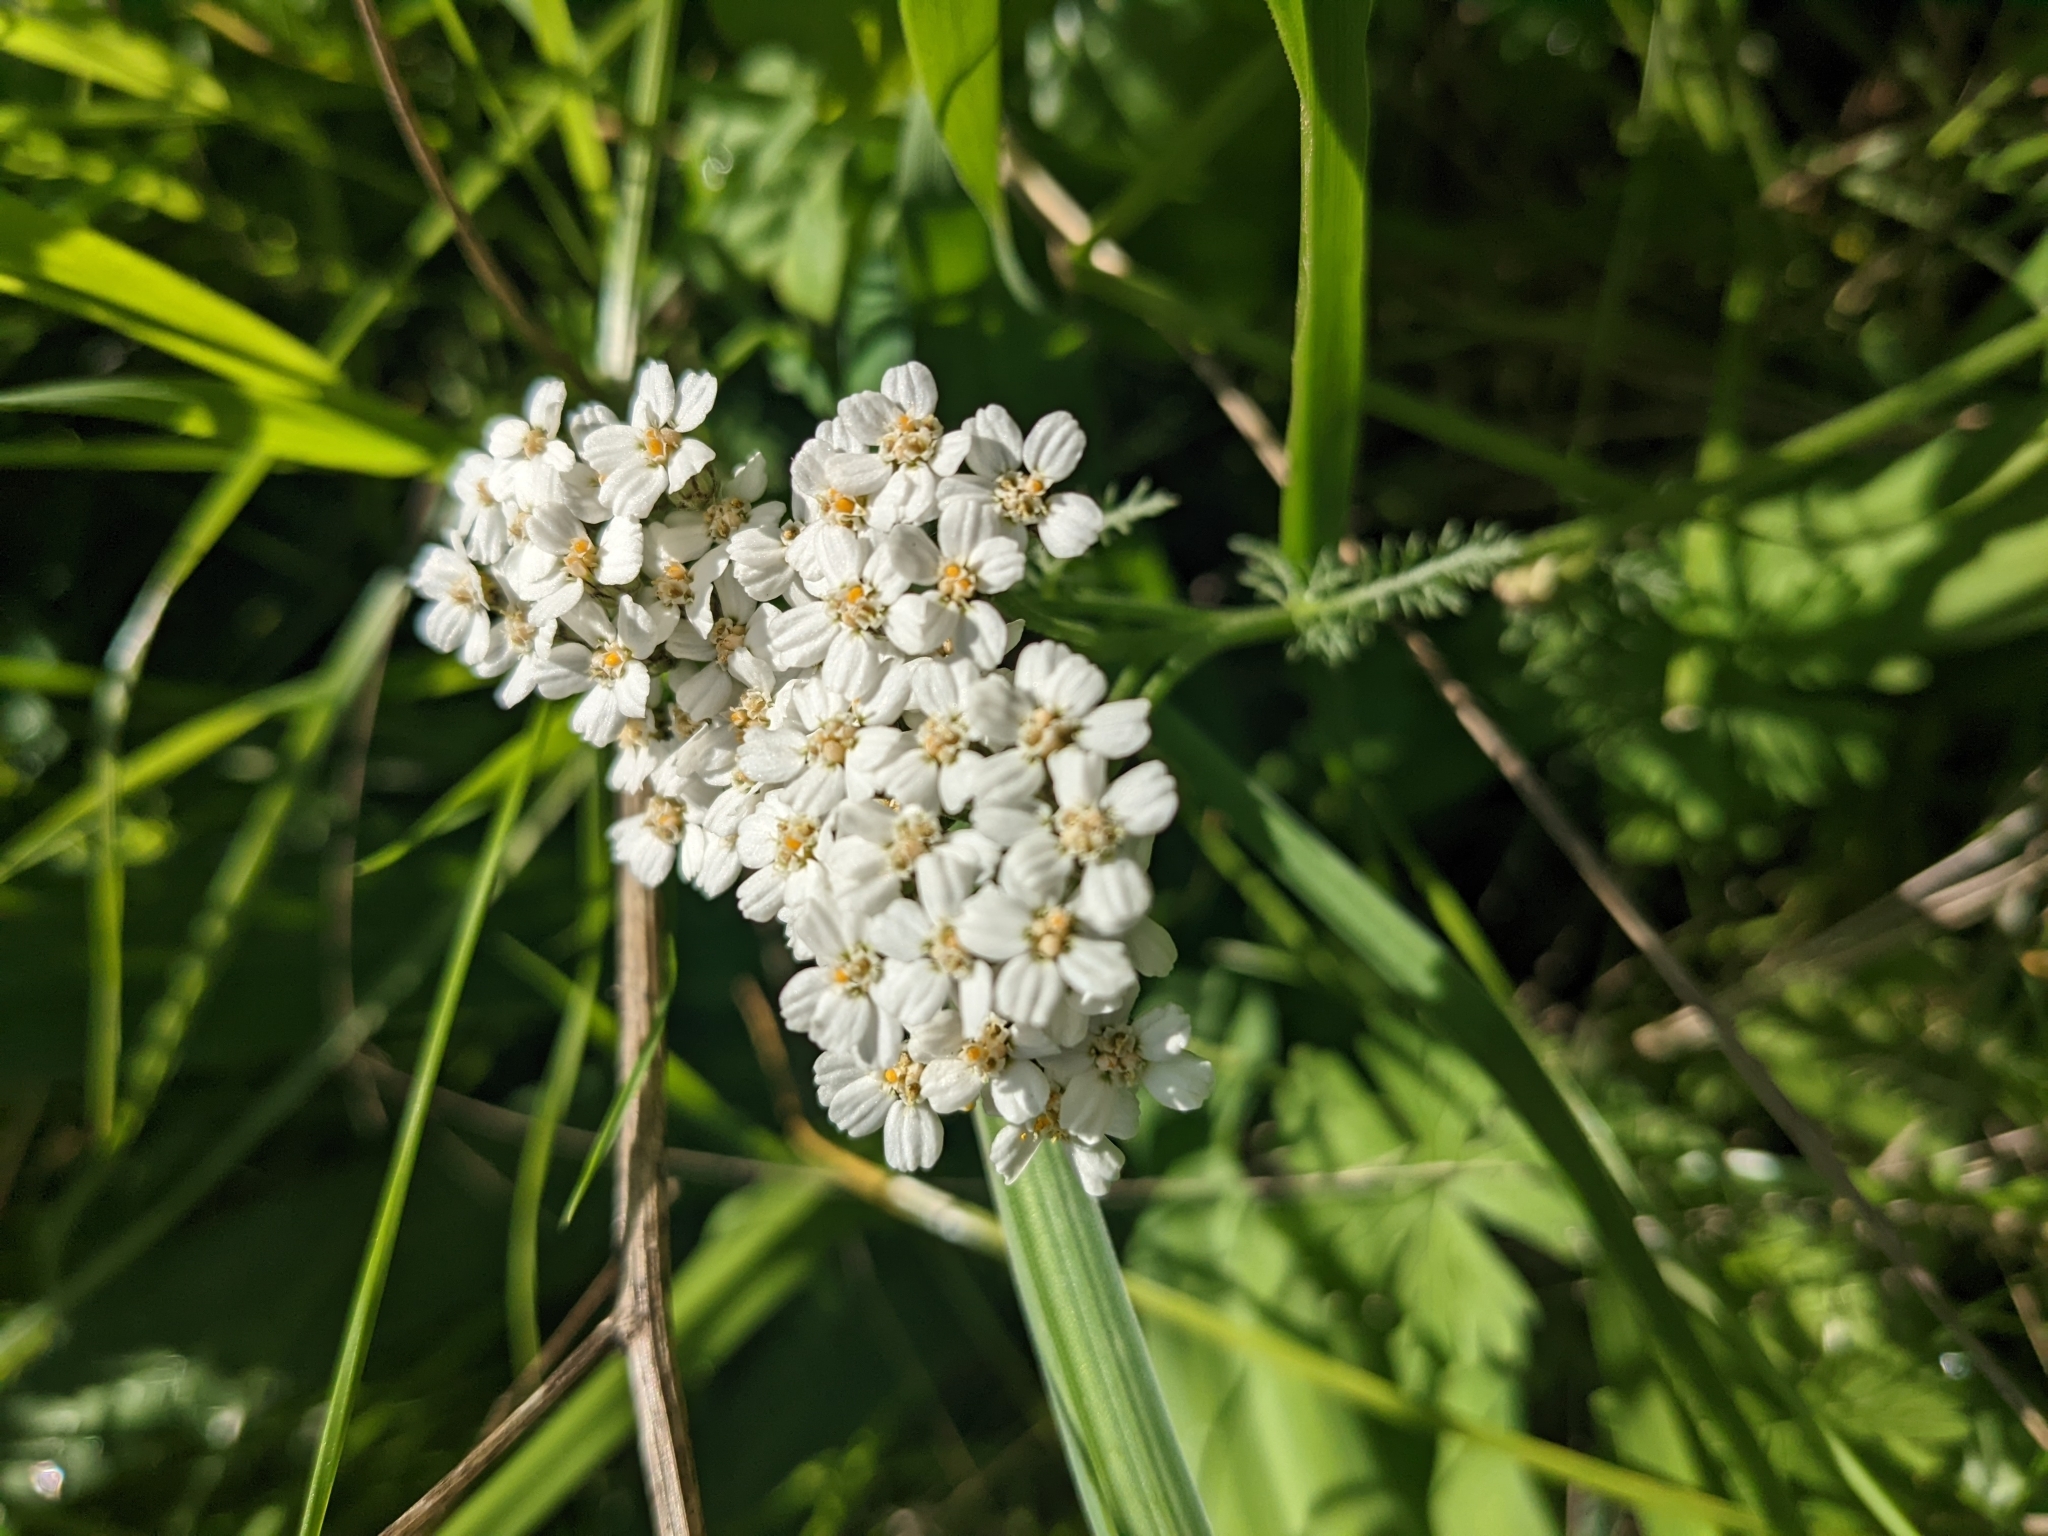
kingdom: Plantae
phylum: Tracheophyta
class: Magnoliopsida
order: Asterales
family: Asteraceae
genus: Achillea
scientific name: Achillea millefolium
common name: Yarrow
